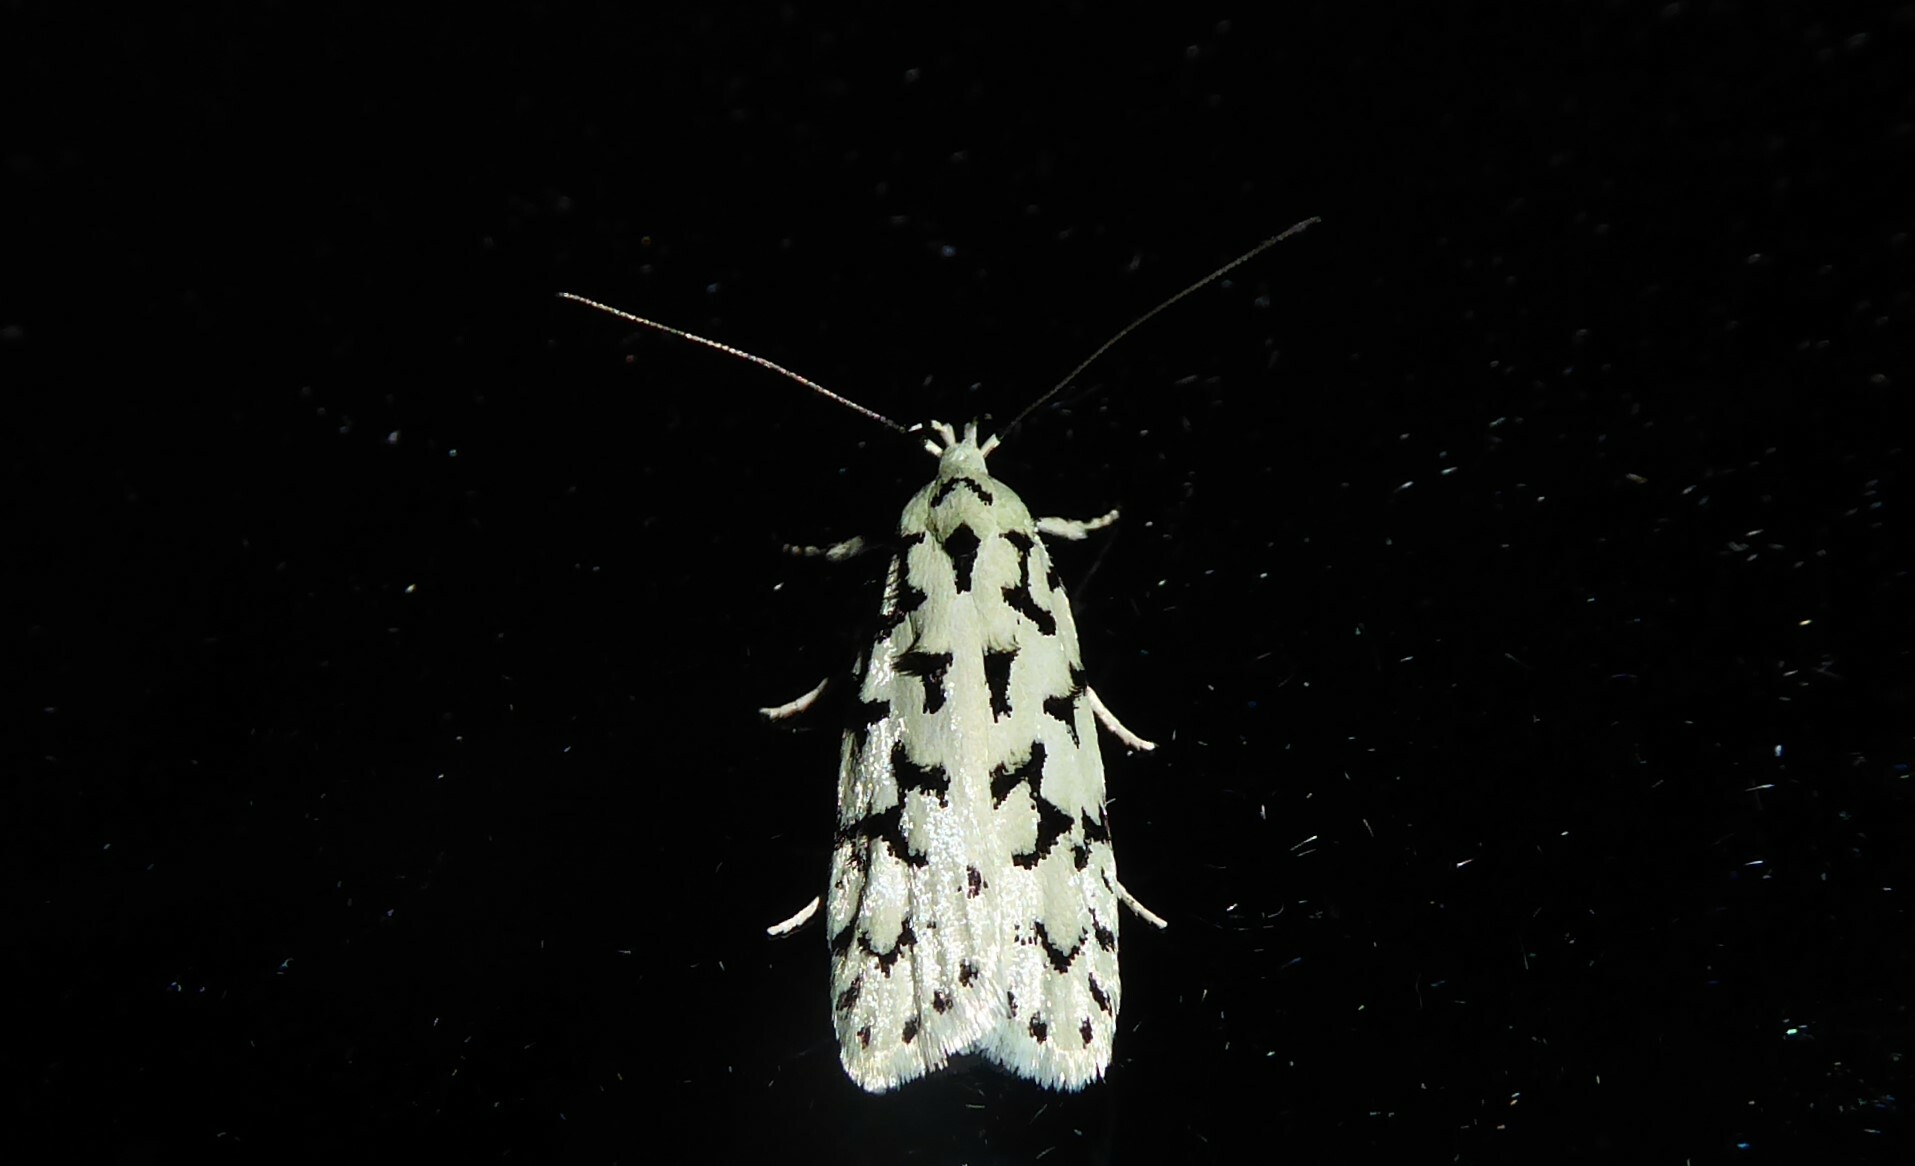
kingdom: Animalia
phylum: Arthropoda
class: Insecta
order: Lepidoptera
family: Oecophoridae
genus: Izatha
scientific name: Izatha huttoni
